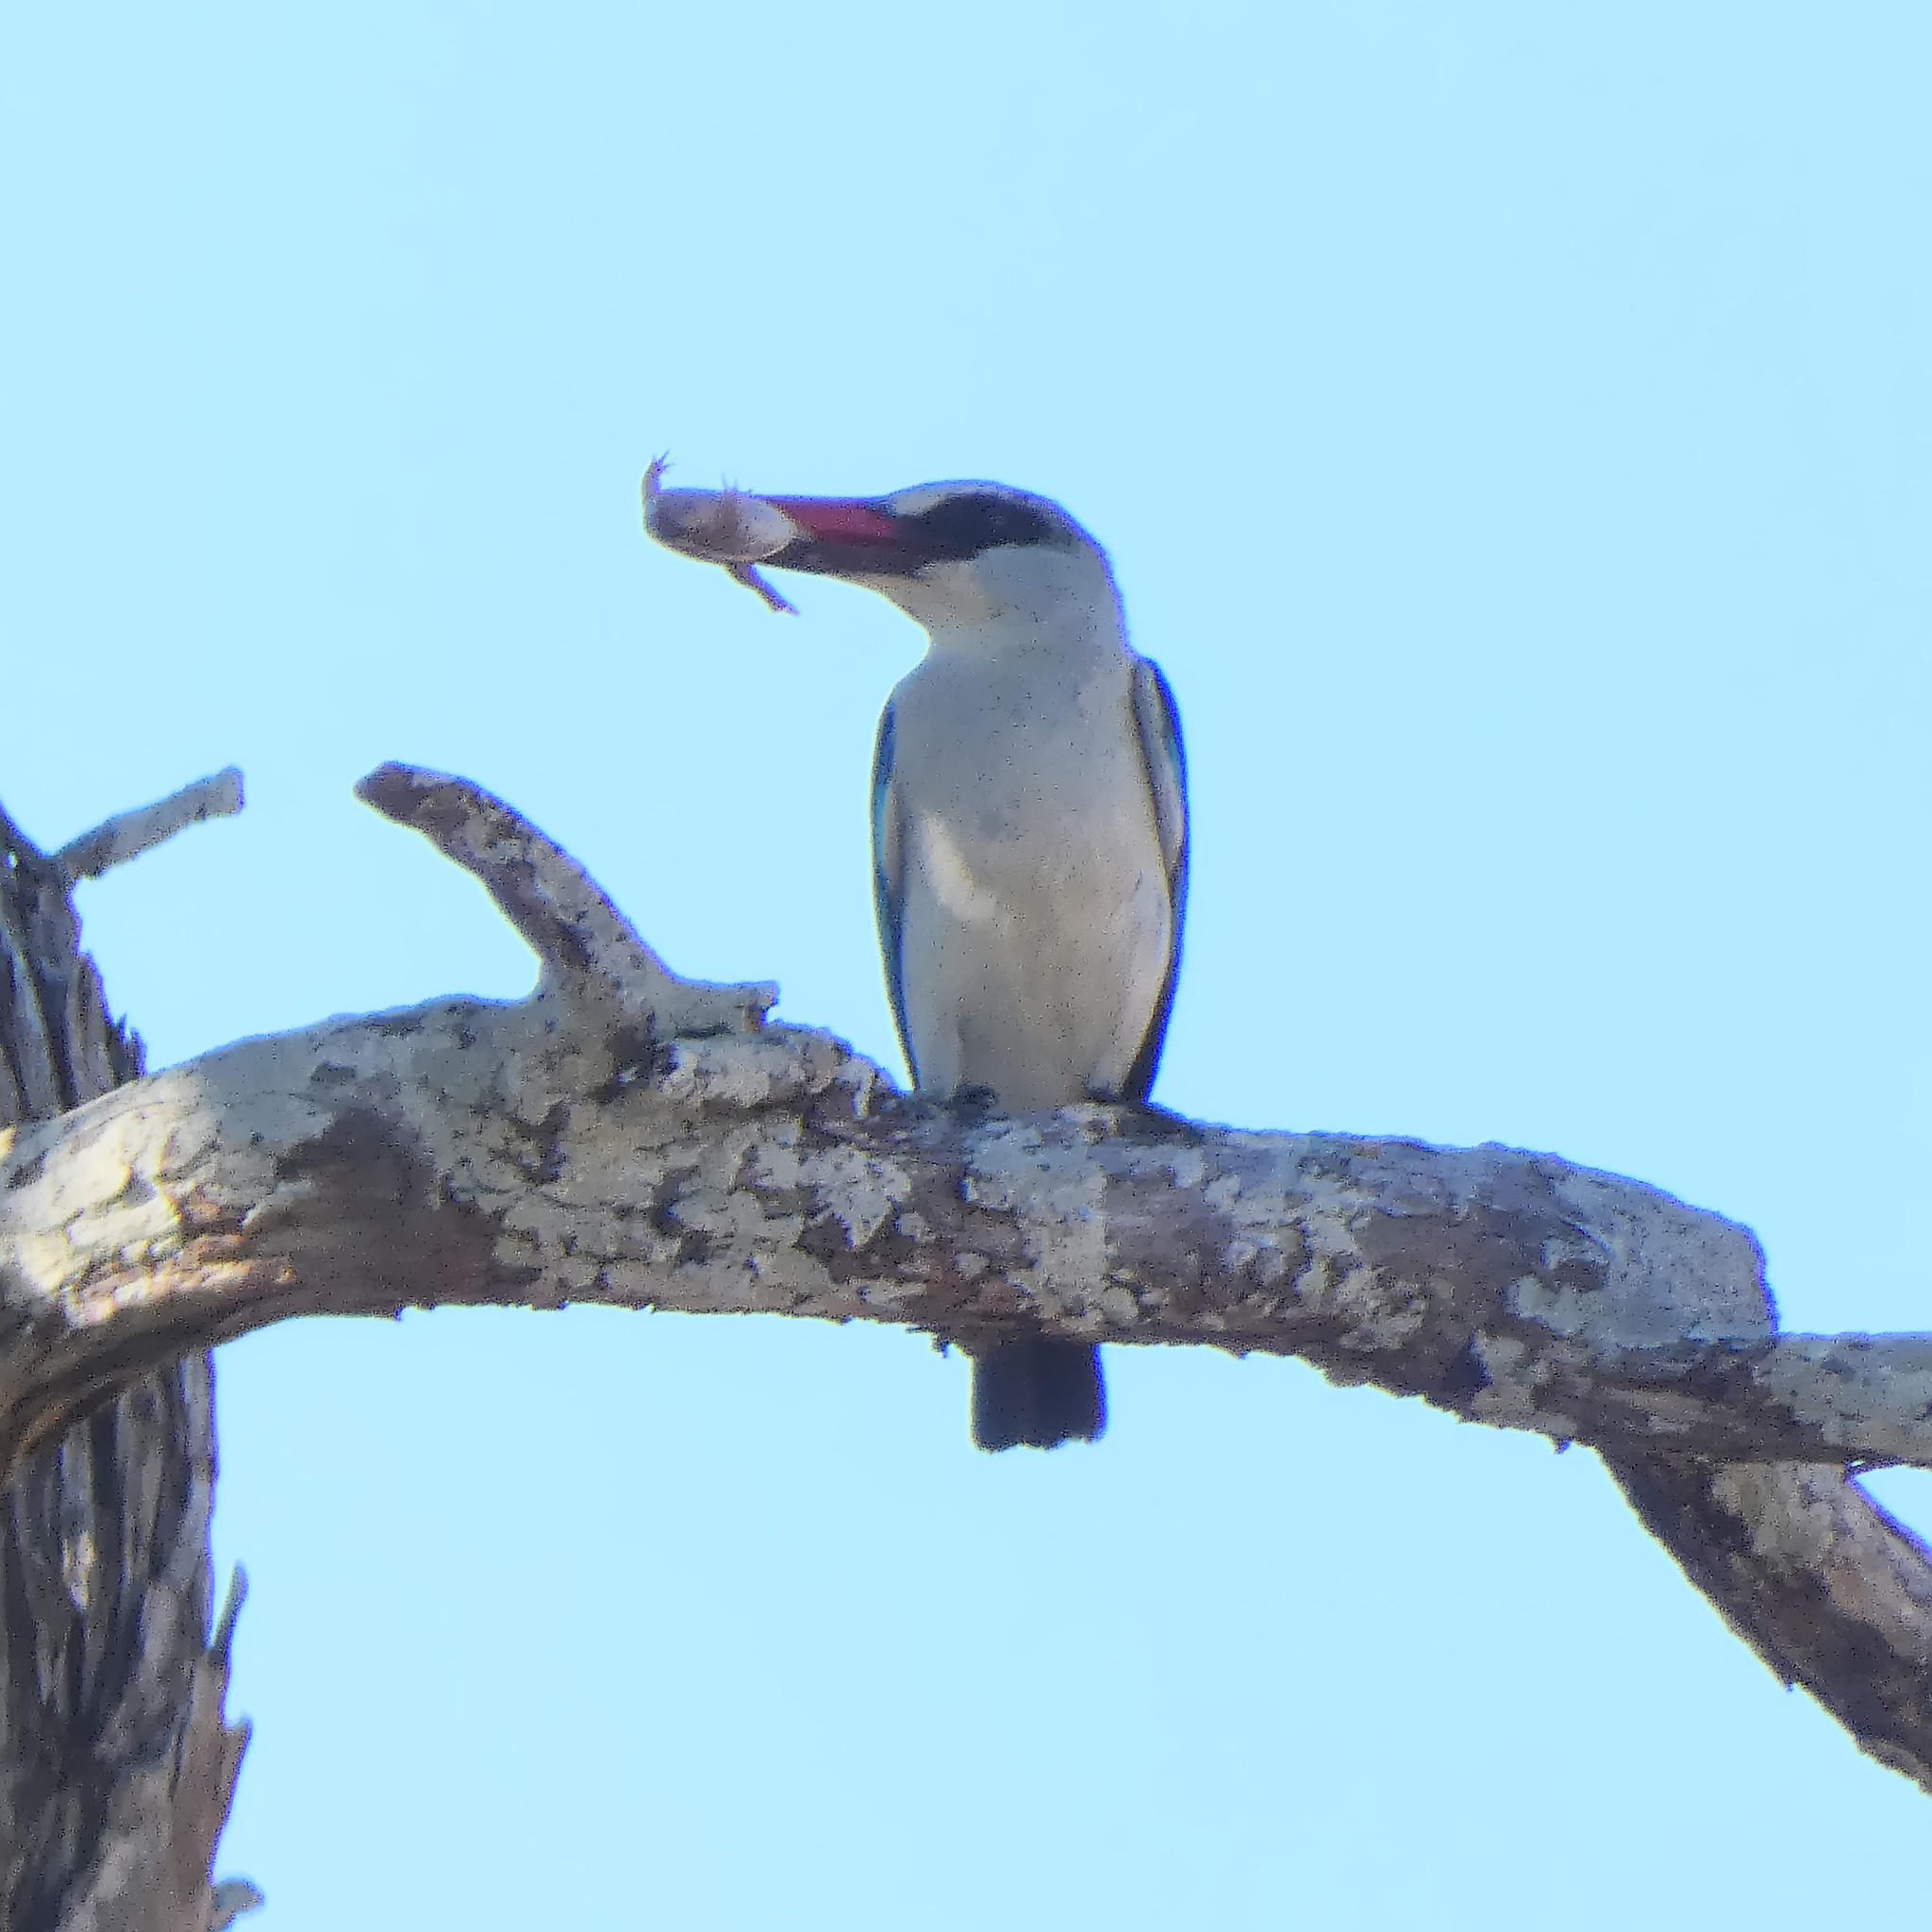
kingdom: Animalia
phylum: Chordata
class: Aves
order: Coraciiformes
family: Alcedinidae
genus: Halcyon
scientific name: Halcyon senegalensis
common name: Woodland kingfisher
